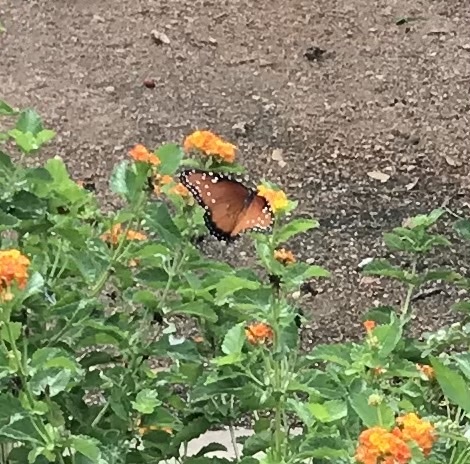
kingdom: Animalia
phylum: Arthropoda
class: Insecta
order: Lepidoptera
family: Nymphalidae
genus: Danaus
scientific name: Danaus gilippus
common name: Queen
